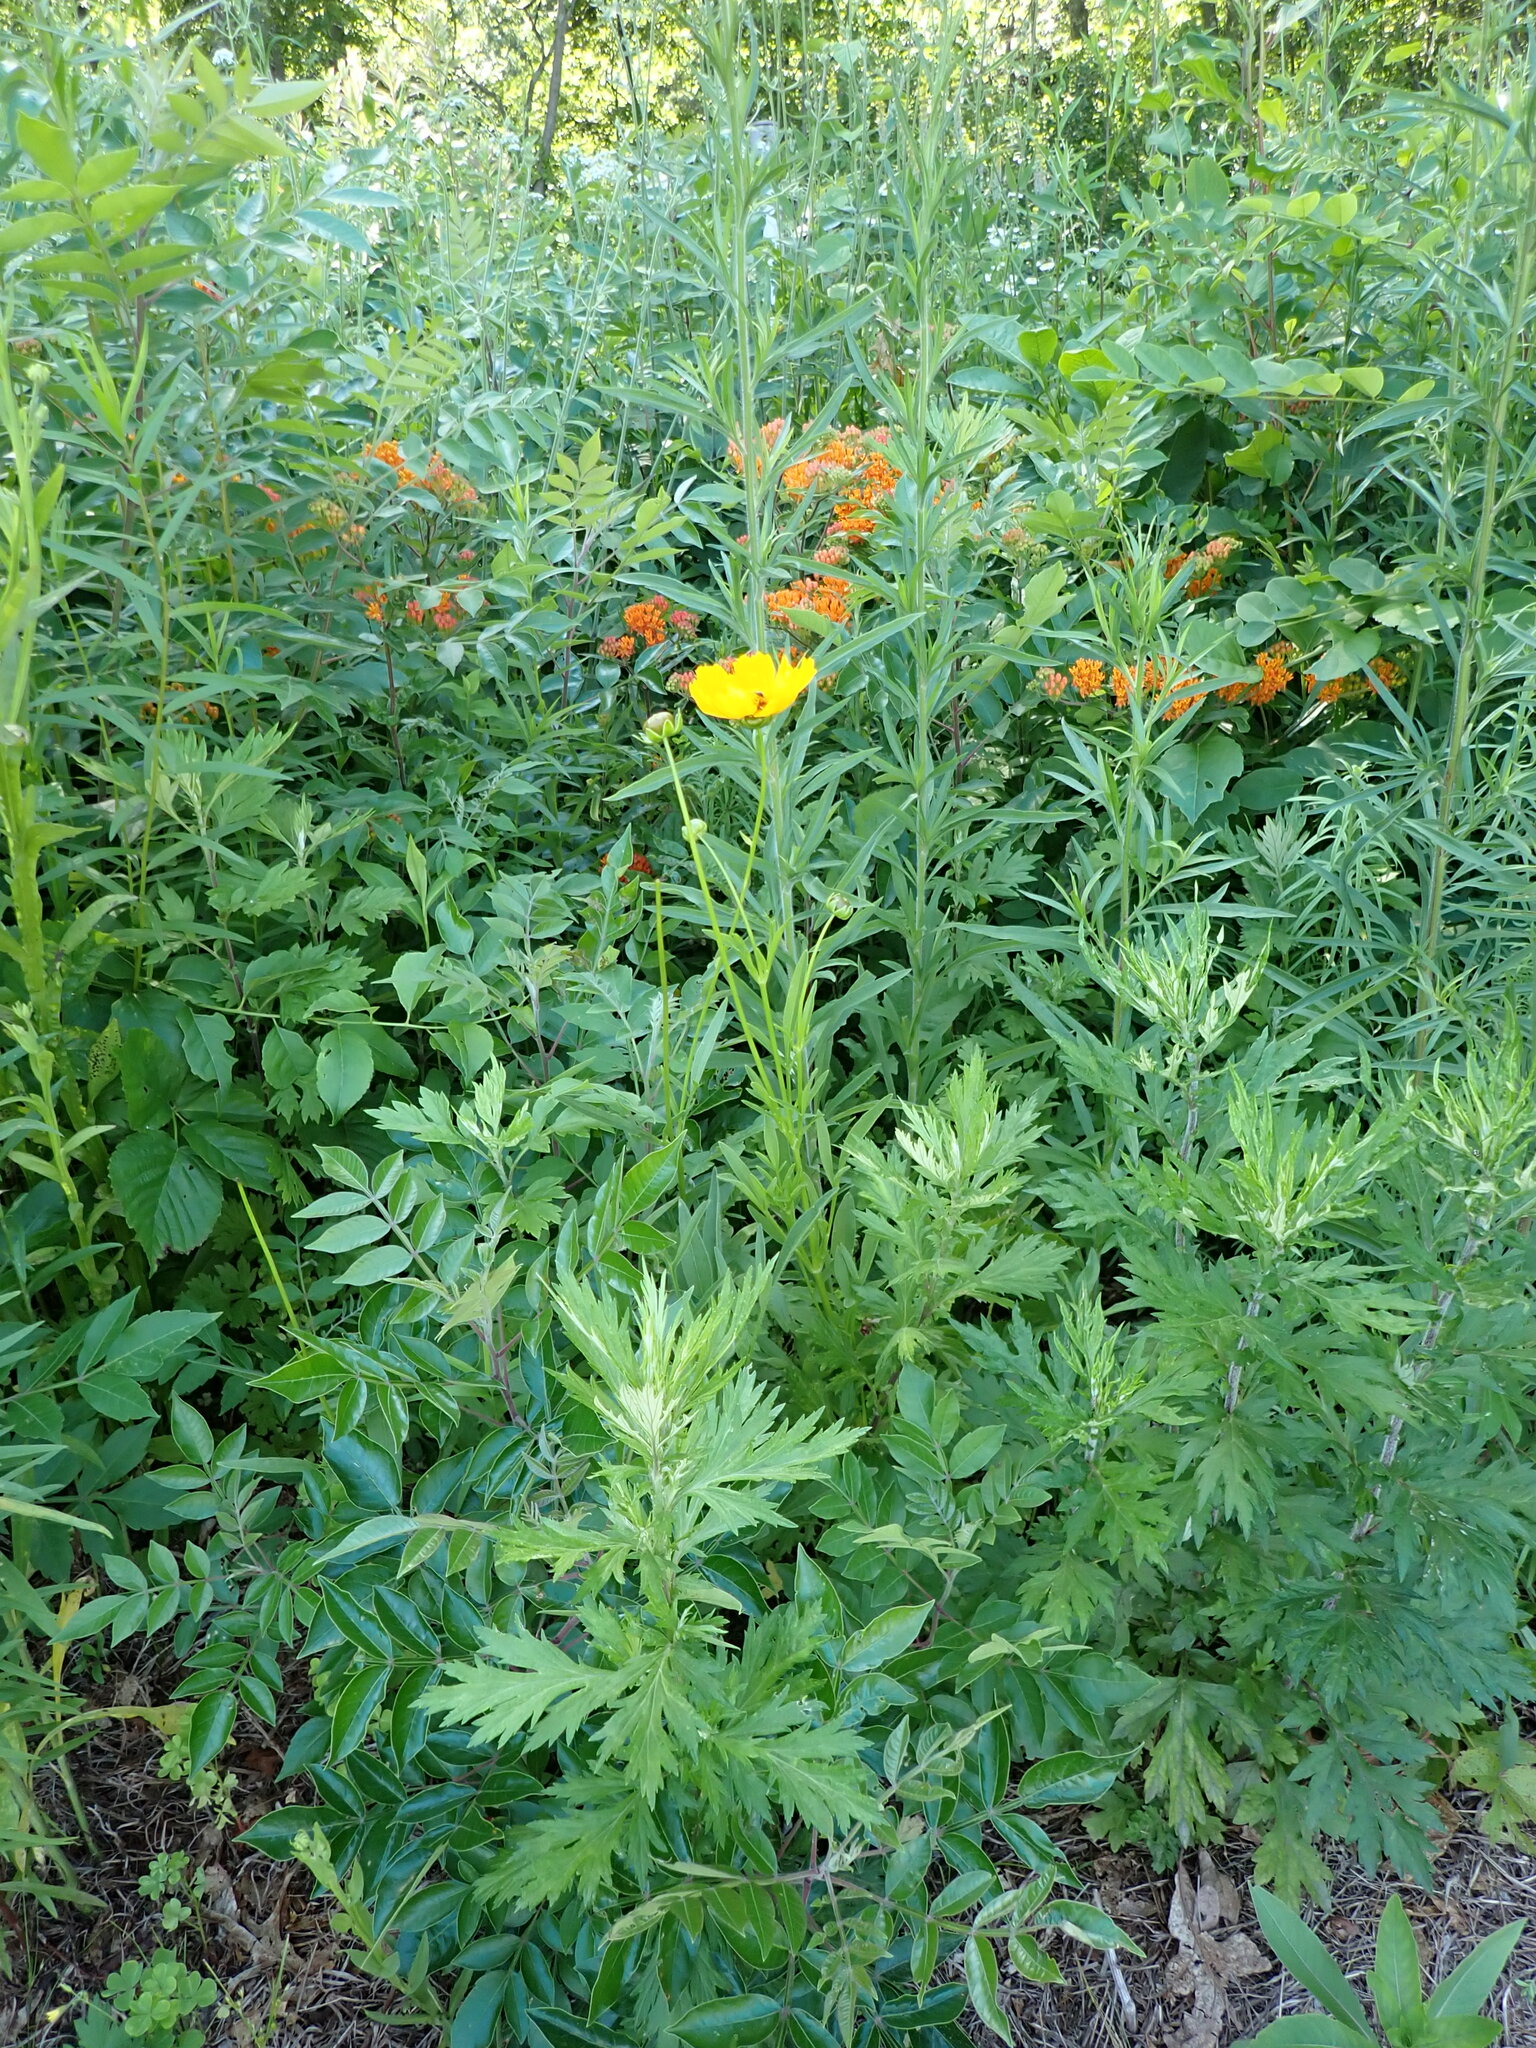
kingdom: Plantae
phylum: Tracheophyta
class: Magnoliopsida
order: Asterales
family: Asteraceae
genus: Coreopsis
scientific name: Coreopsis lanceolata
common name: Garden coreopsis
